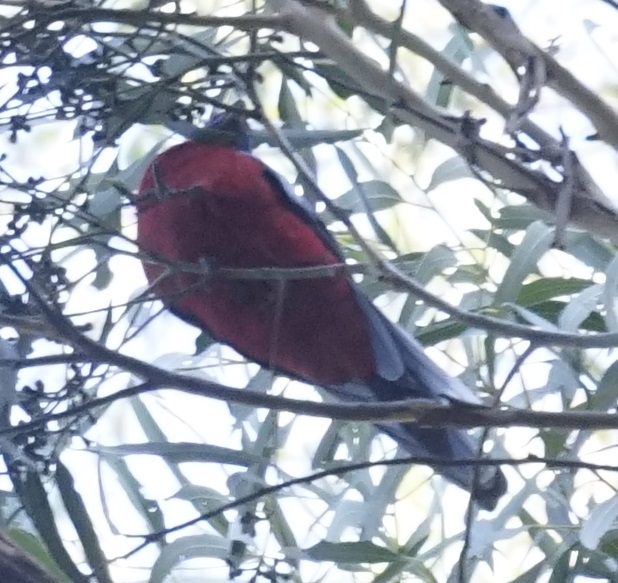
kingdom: Animalia
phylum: Chordata
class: Aves
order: Psittaciformes
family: Psittacidae
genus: Platycercus
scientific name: Platycercus elegans
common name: Crimson rosella
